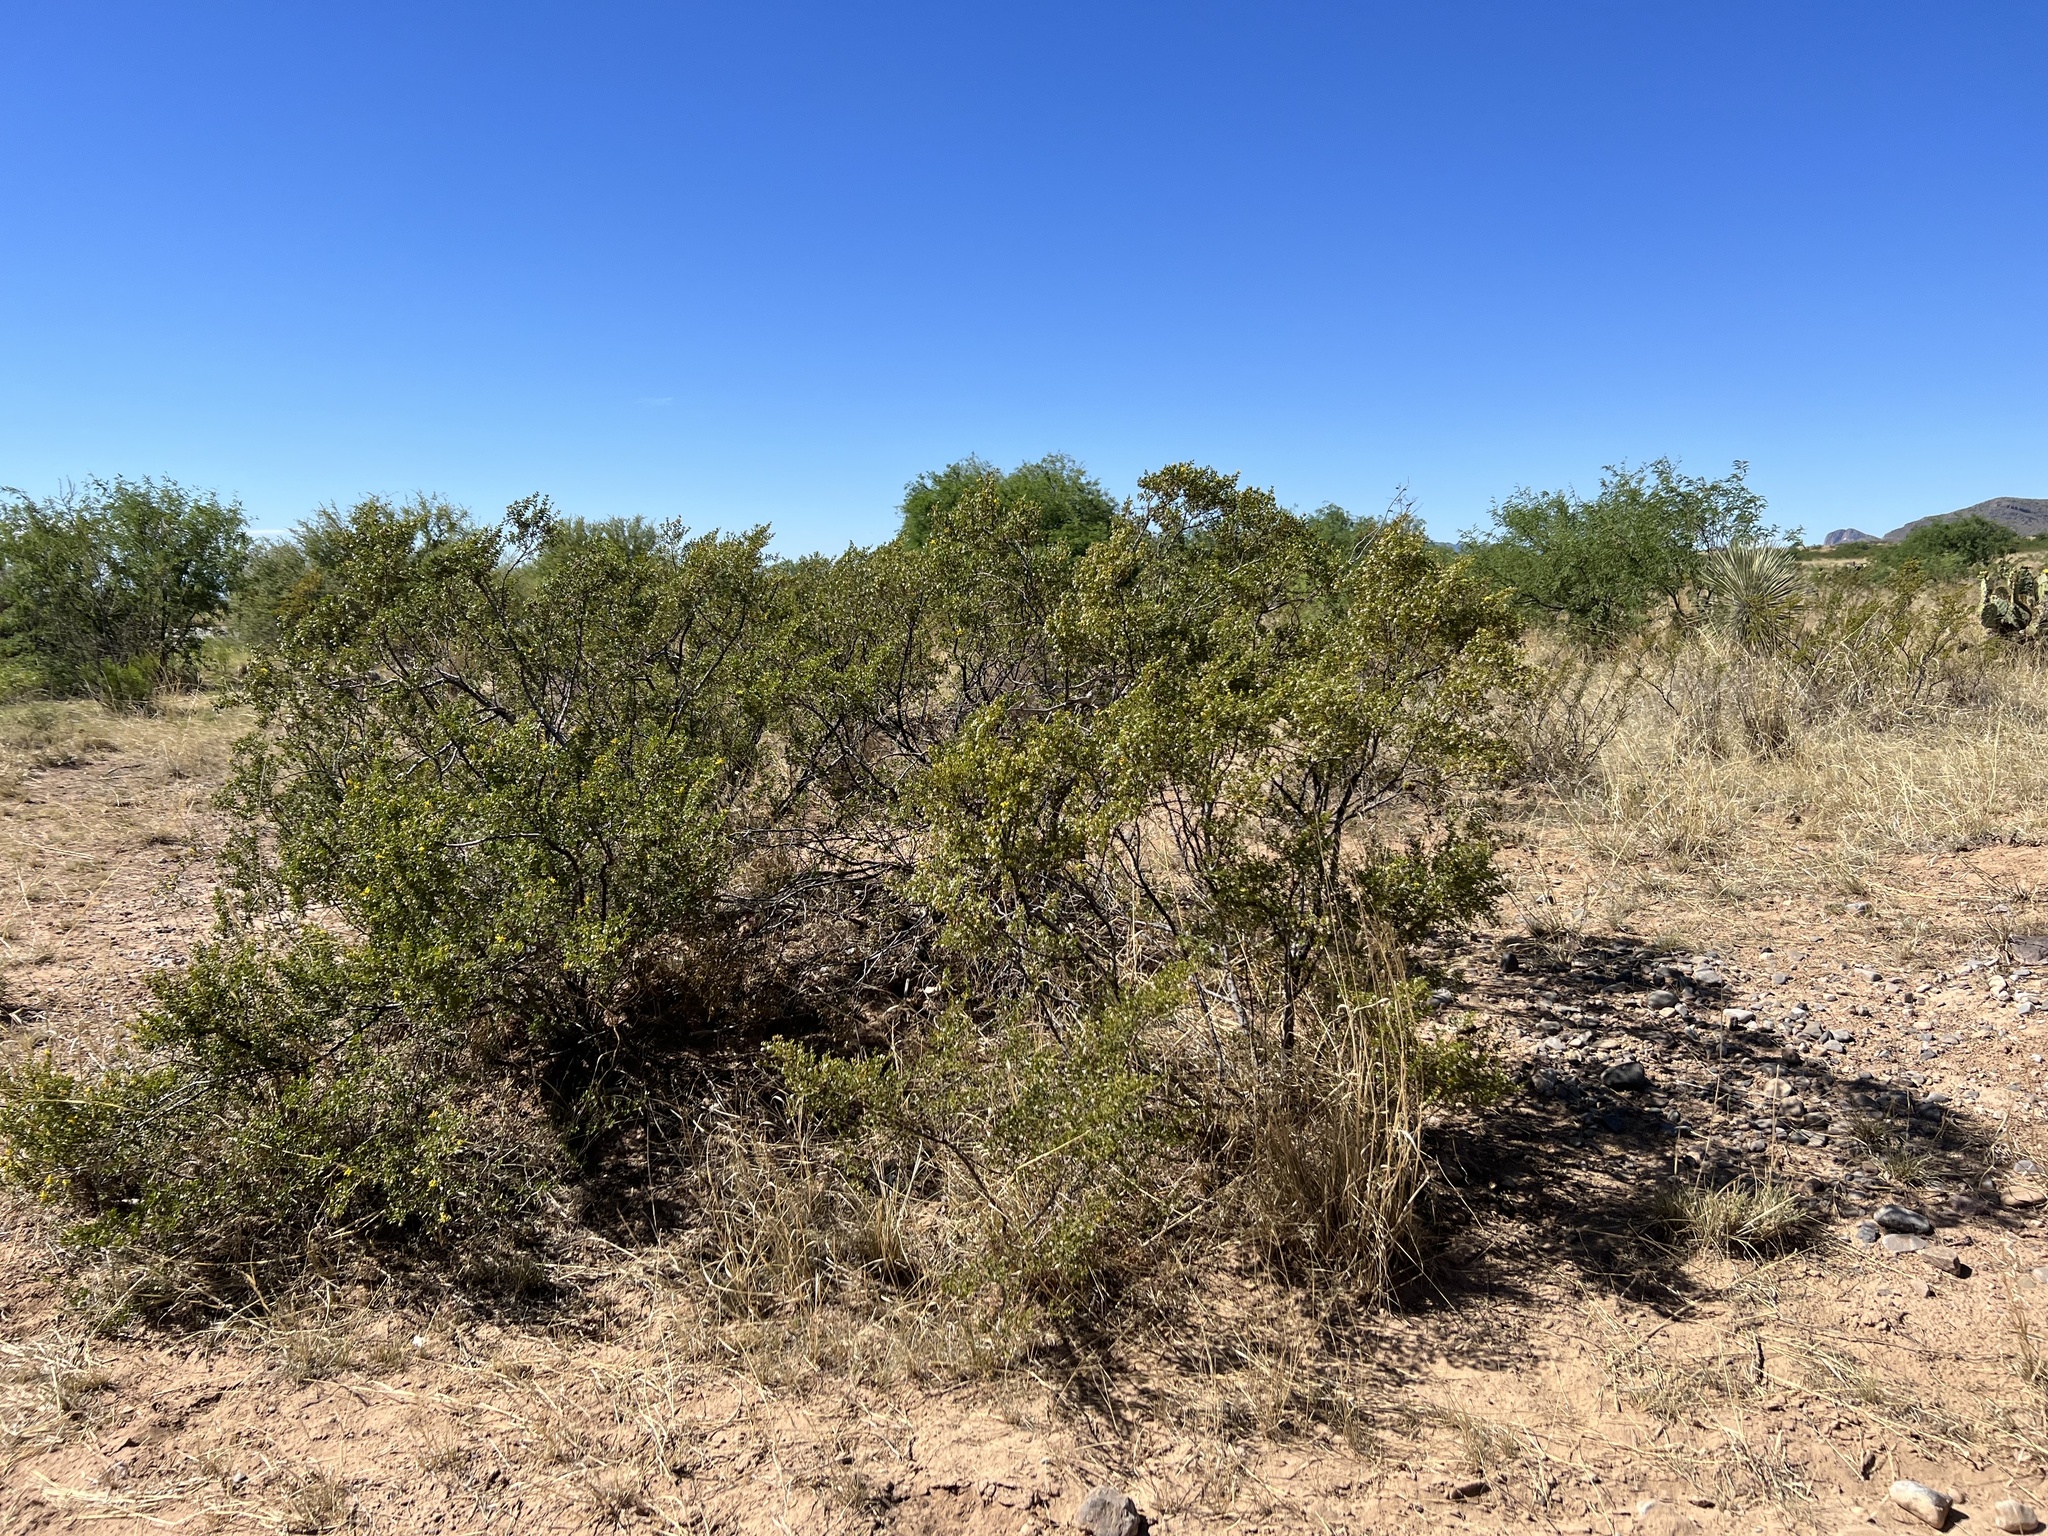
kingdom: Plantae
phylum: Tracheophyta
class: Magnoliopsida
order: Zygophyllales
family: Zygophyllaceae
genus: Larrea
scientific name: Larrea tridentata
